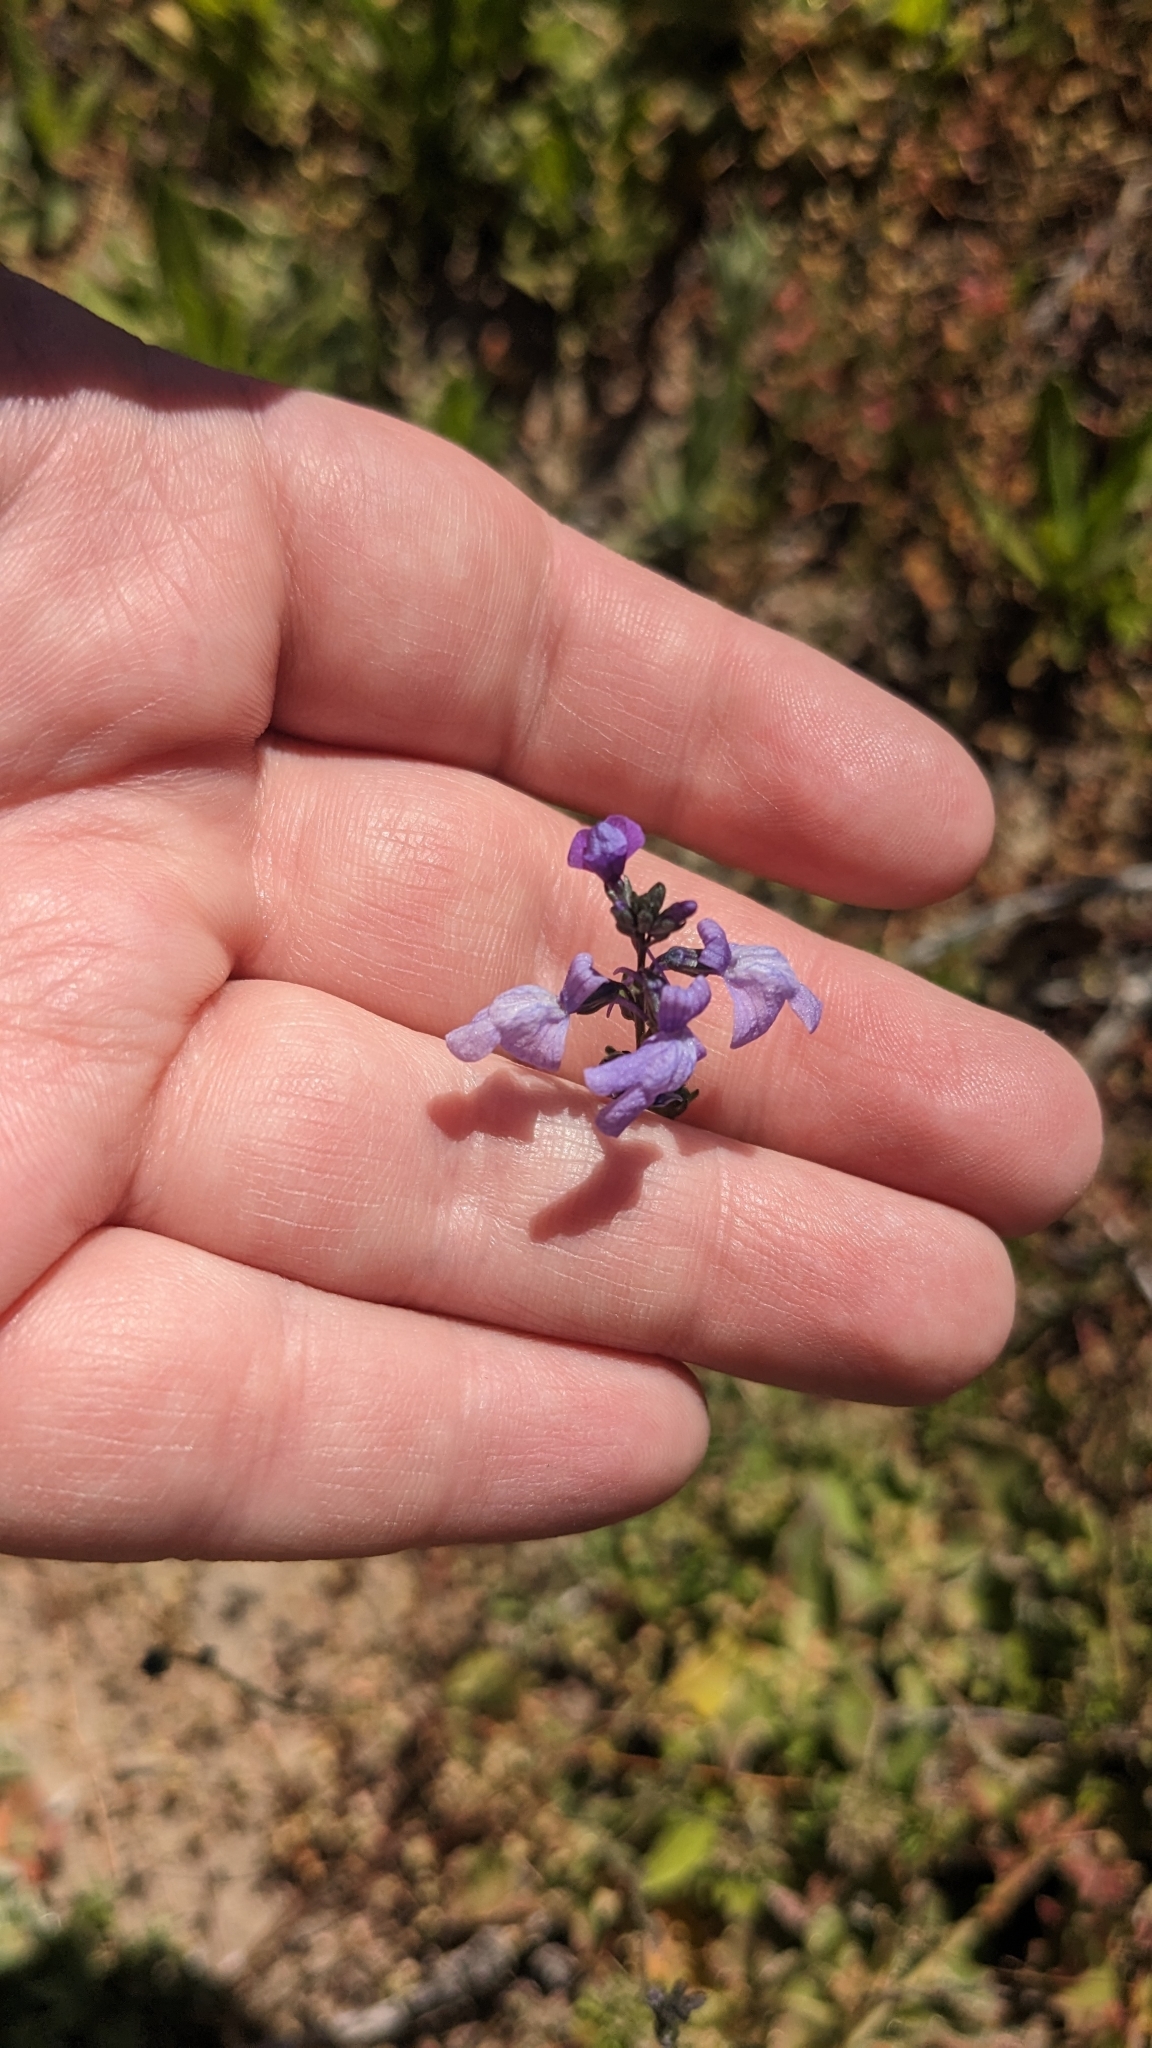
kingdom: Plantae
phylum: Tracheophyta
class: Magnoliopsida
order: Lamiales
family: Plantaginaceae
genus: Nuttallanthus
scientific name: Nuttallanthus texanus
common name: Texas toadflax
